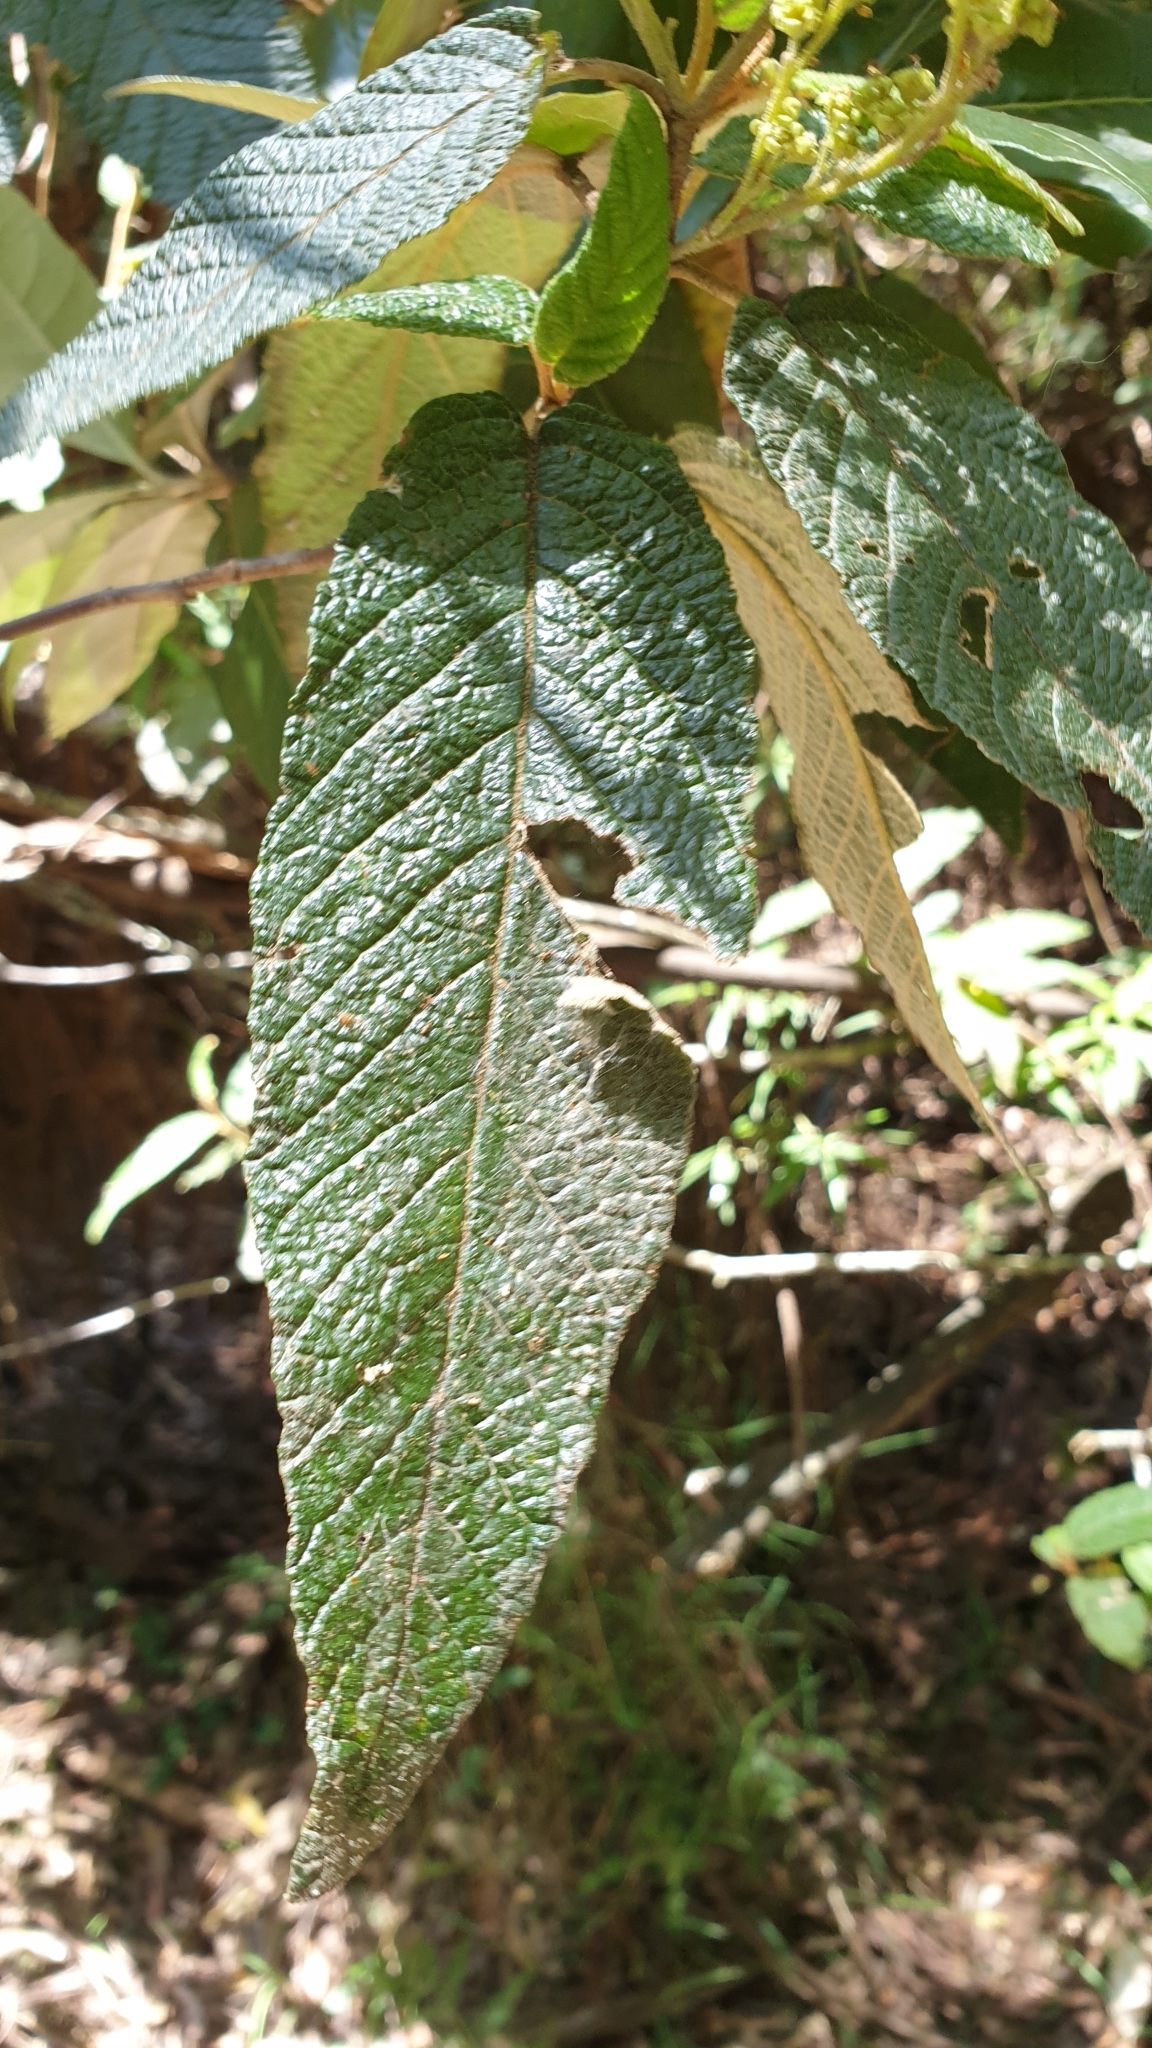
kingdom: Plantae
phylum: Tracheophyta
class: Magnoliopsida
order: Rosales
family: Rhamnaceae
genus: Pomaderris
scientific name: Pomaderris aspera
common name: Hazel pomaderris
